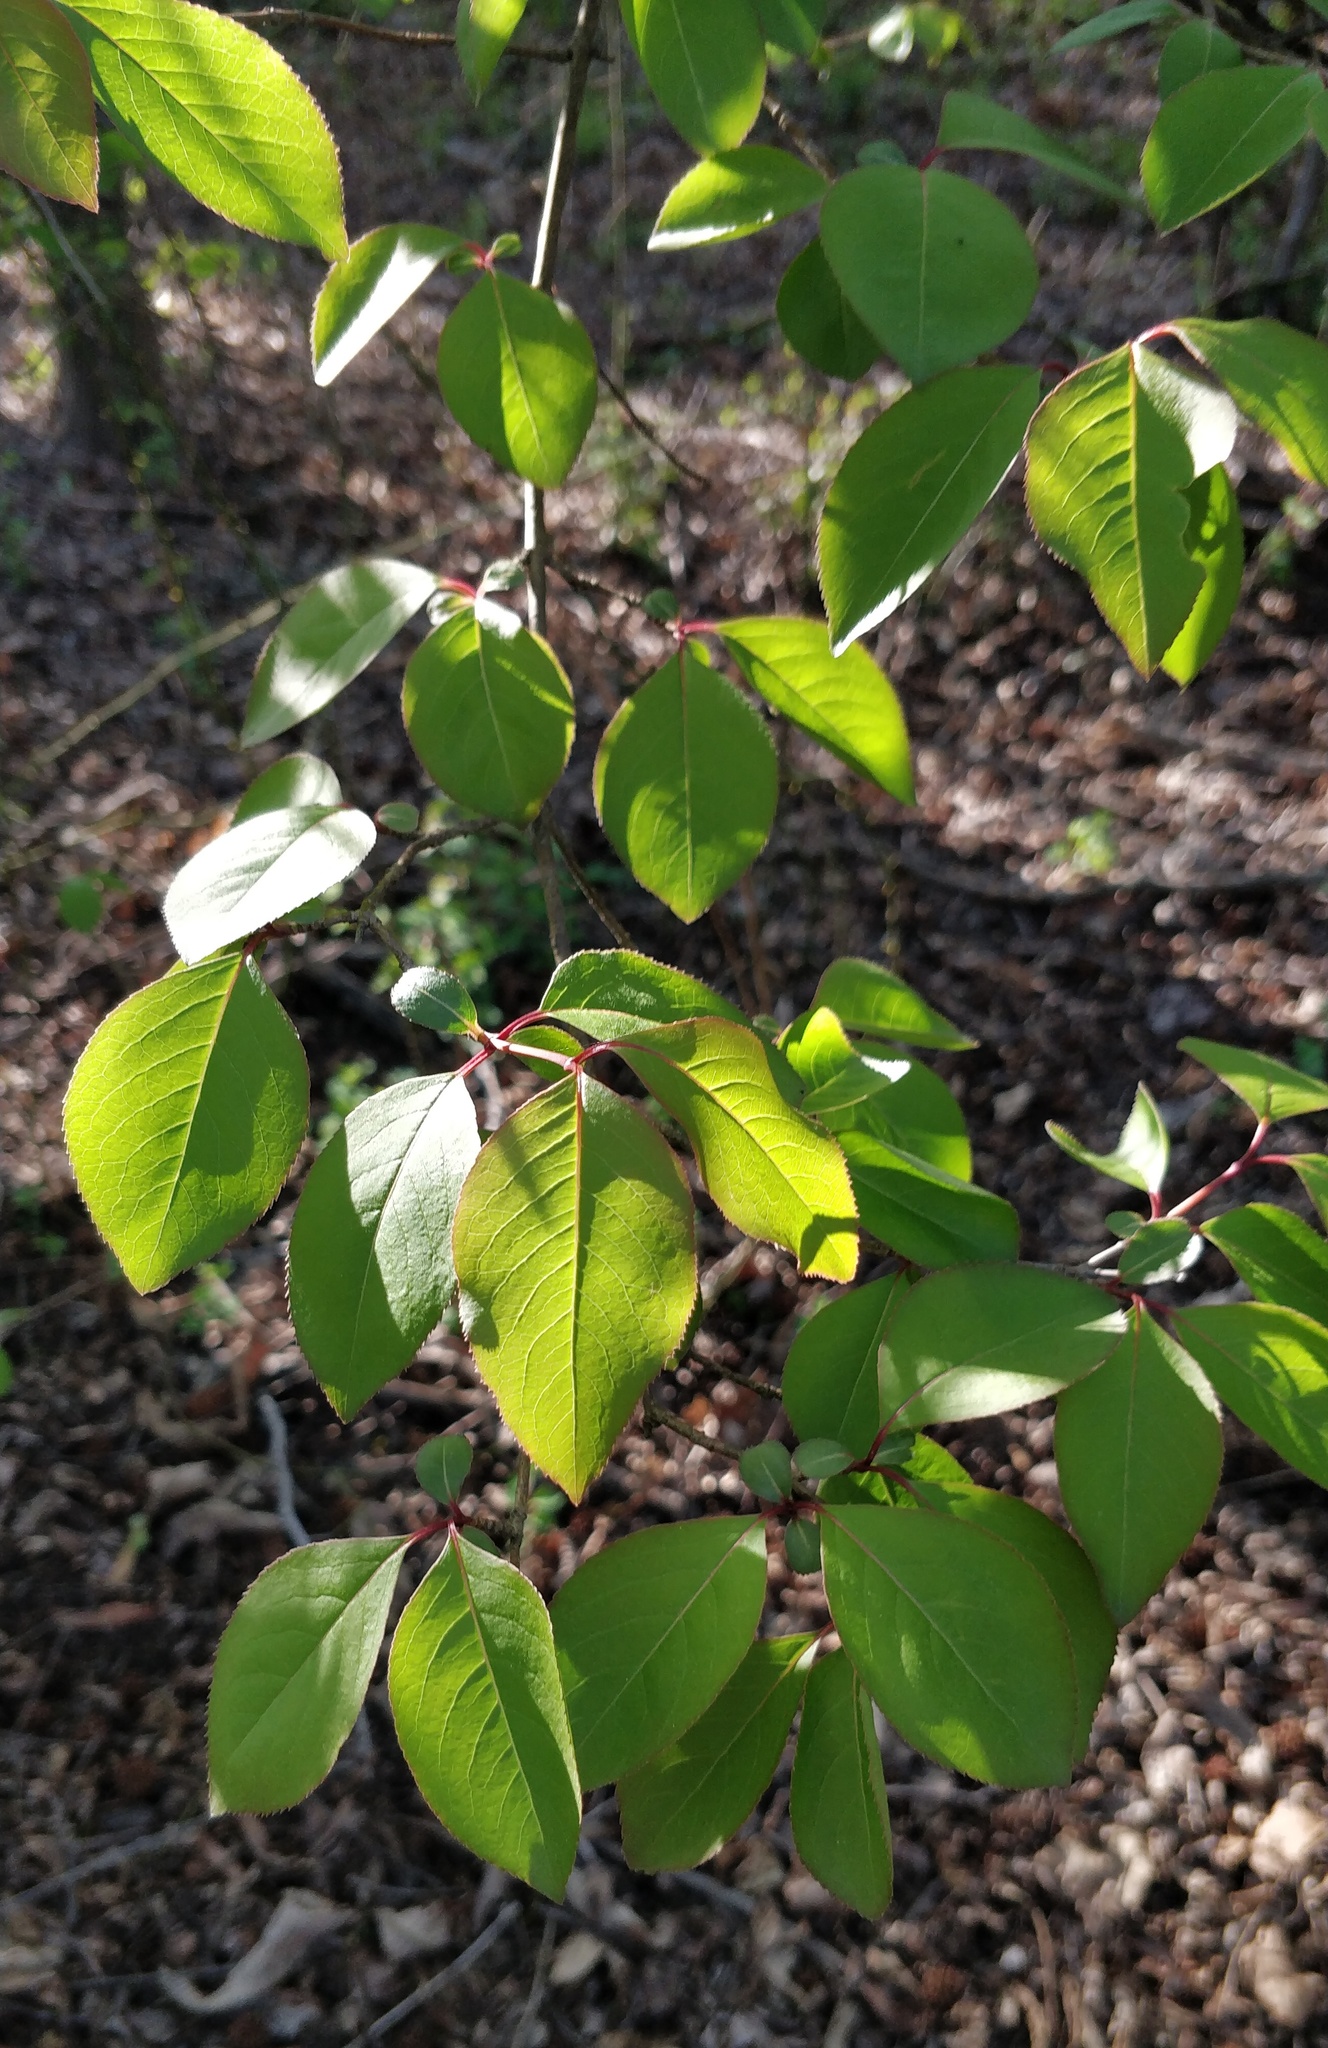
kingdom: Plantae
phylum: Tracheophyta
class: Magnoliopsida
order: Dipsacales
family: Viburnaceae
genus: Viburnum
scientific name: Viburnum prunifolium
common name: Black haw
